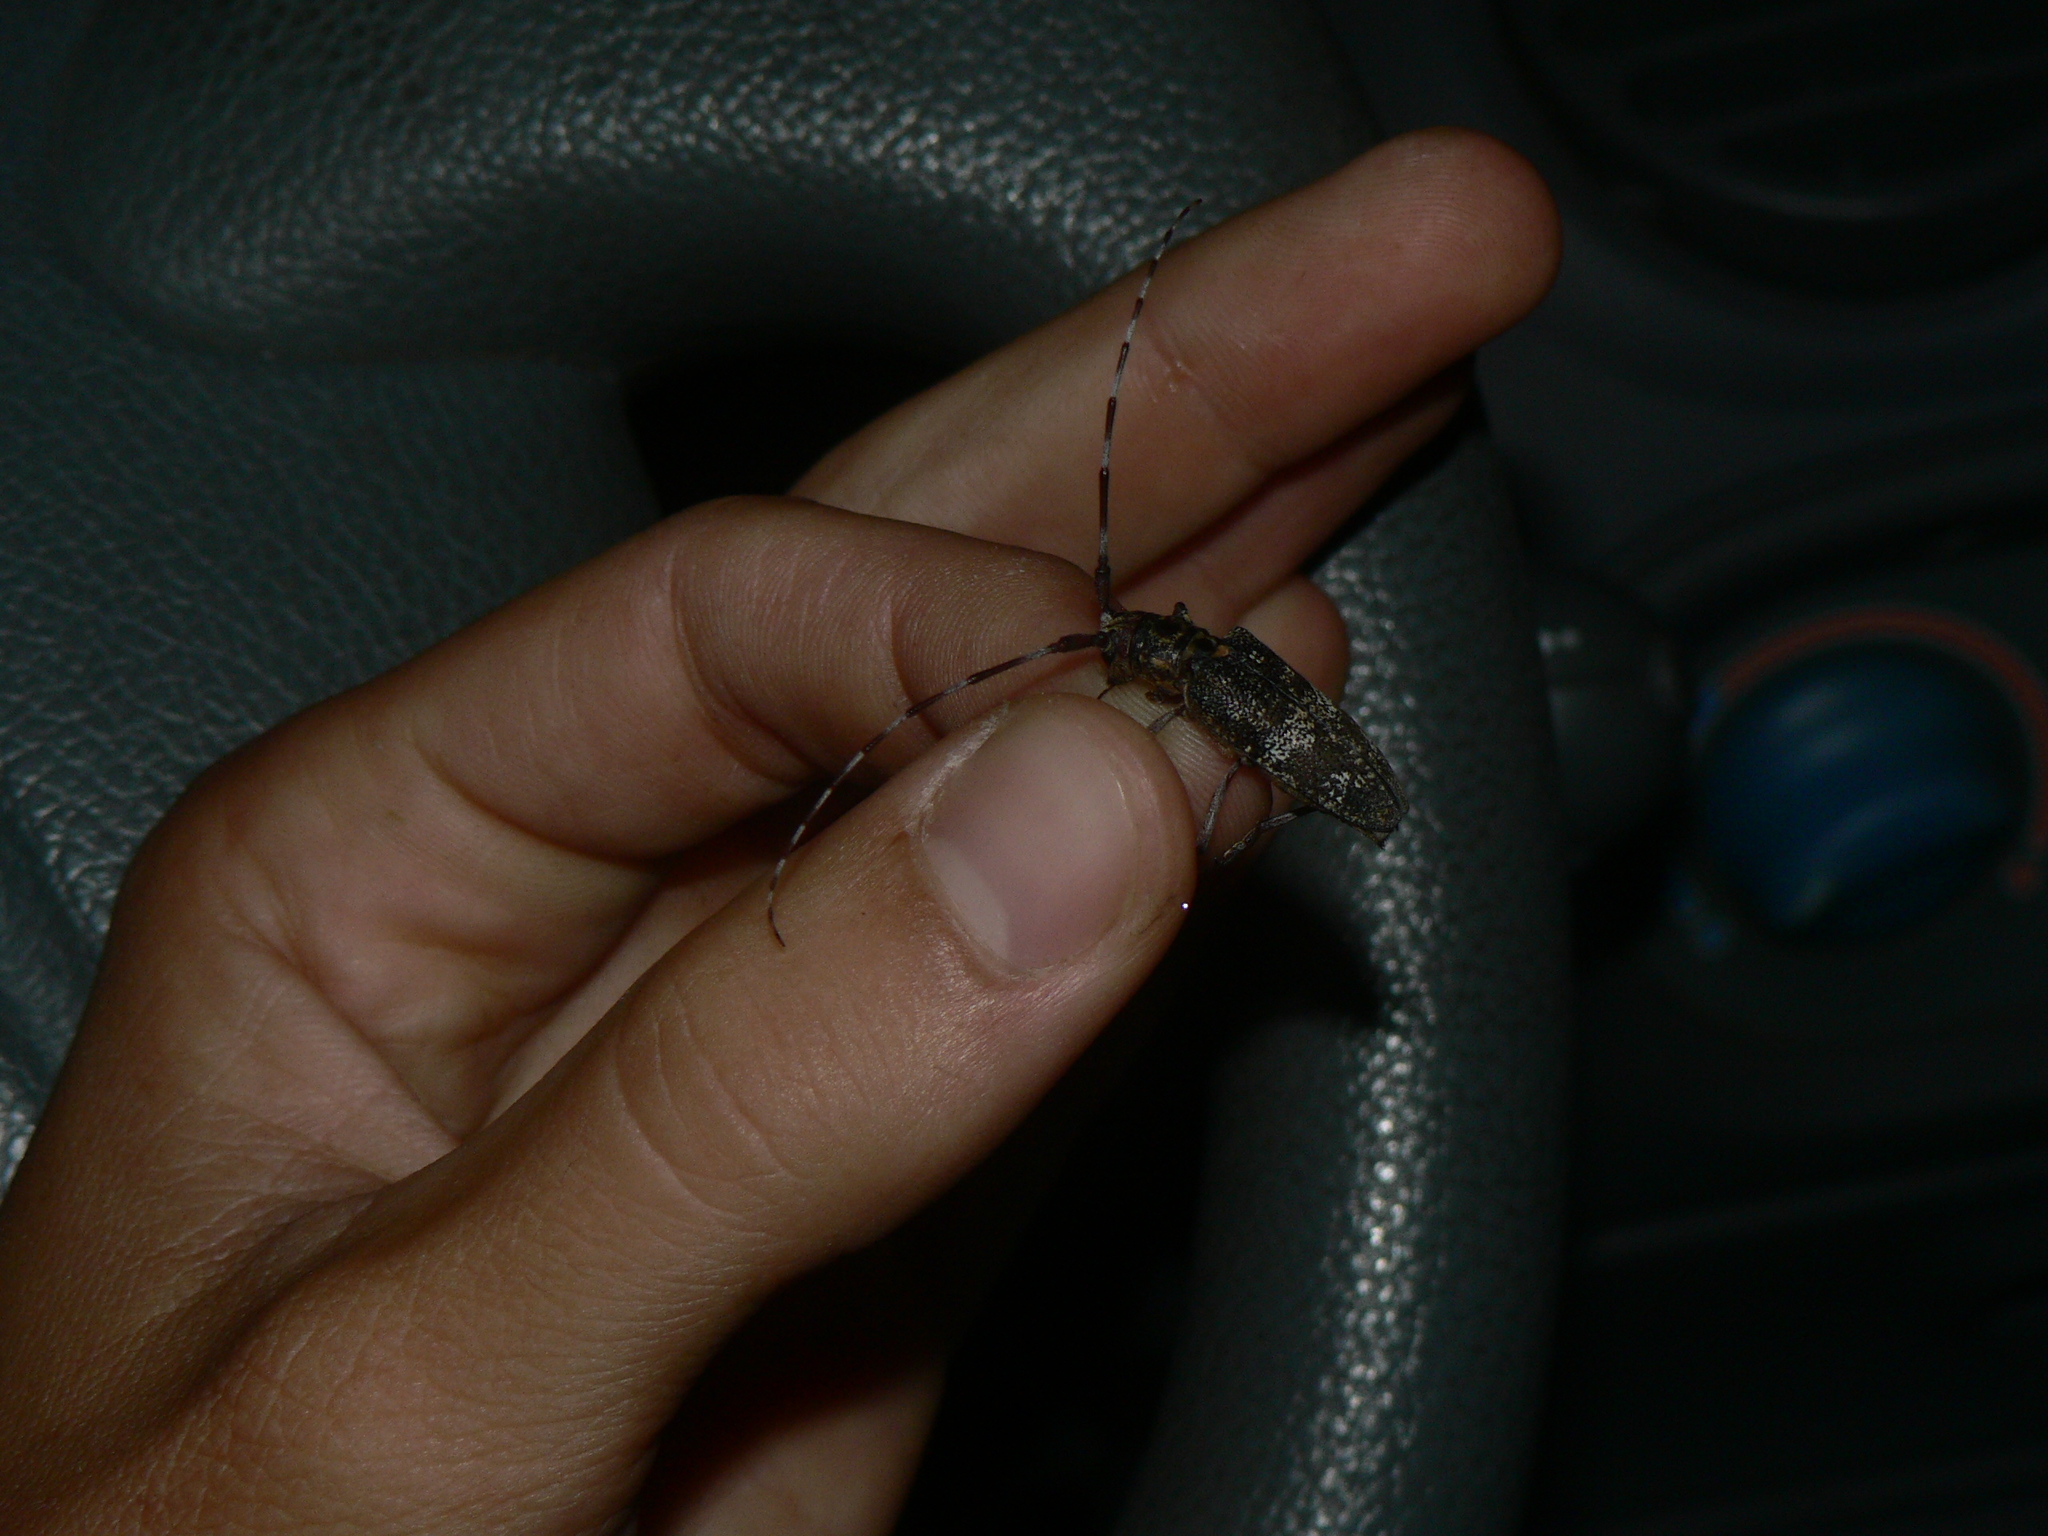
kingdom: Animalia
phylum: Arthropoda
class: Insecta
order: Coleoptera
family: Cerambycidae
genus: Monochamus
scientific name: Monochamus galloprovincialis
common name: Pine sawyer
